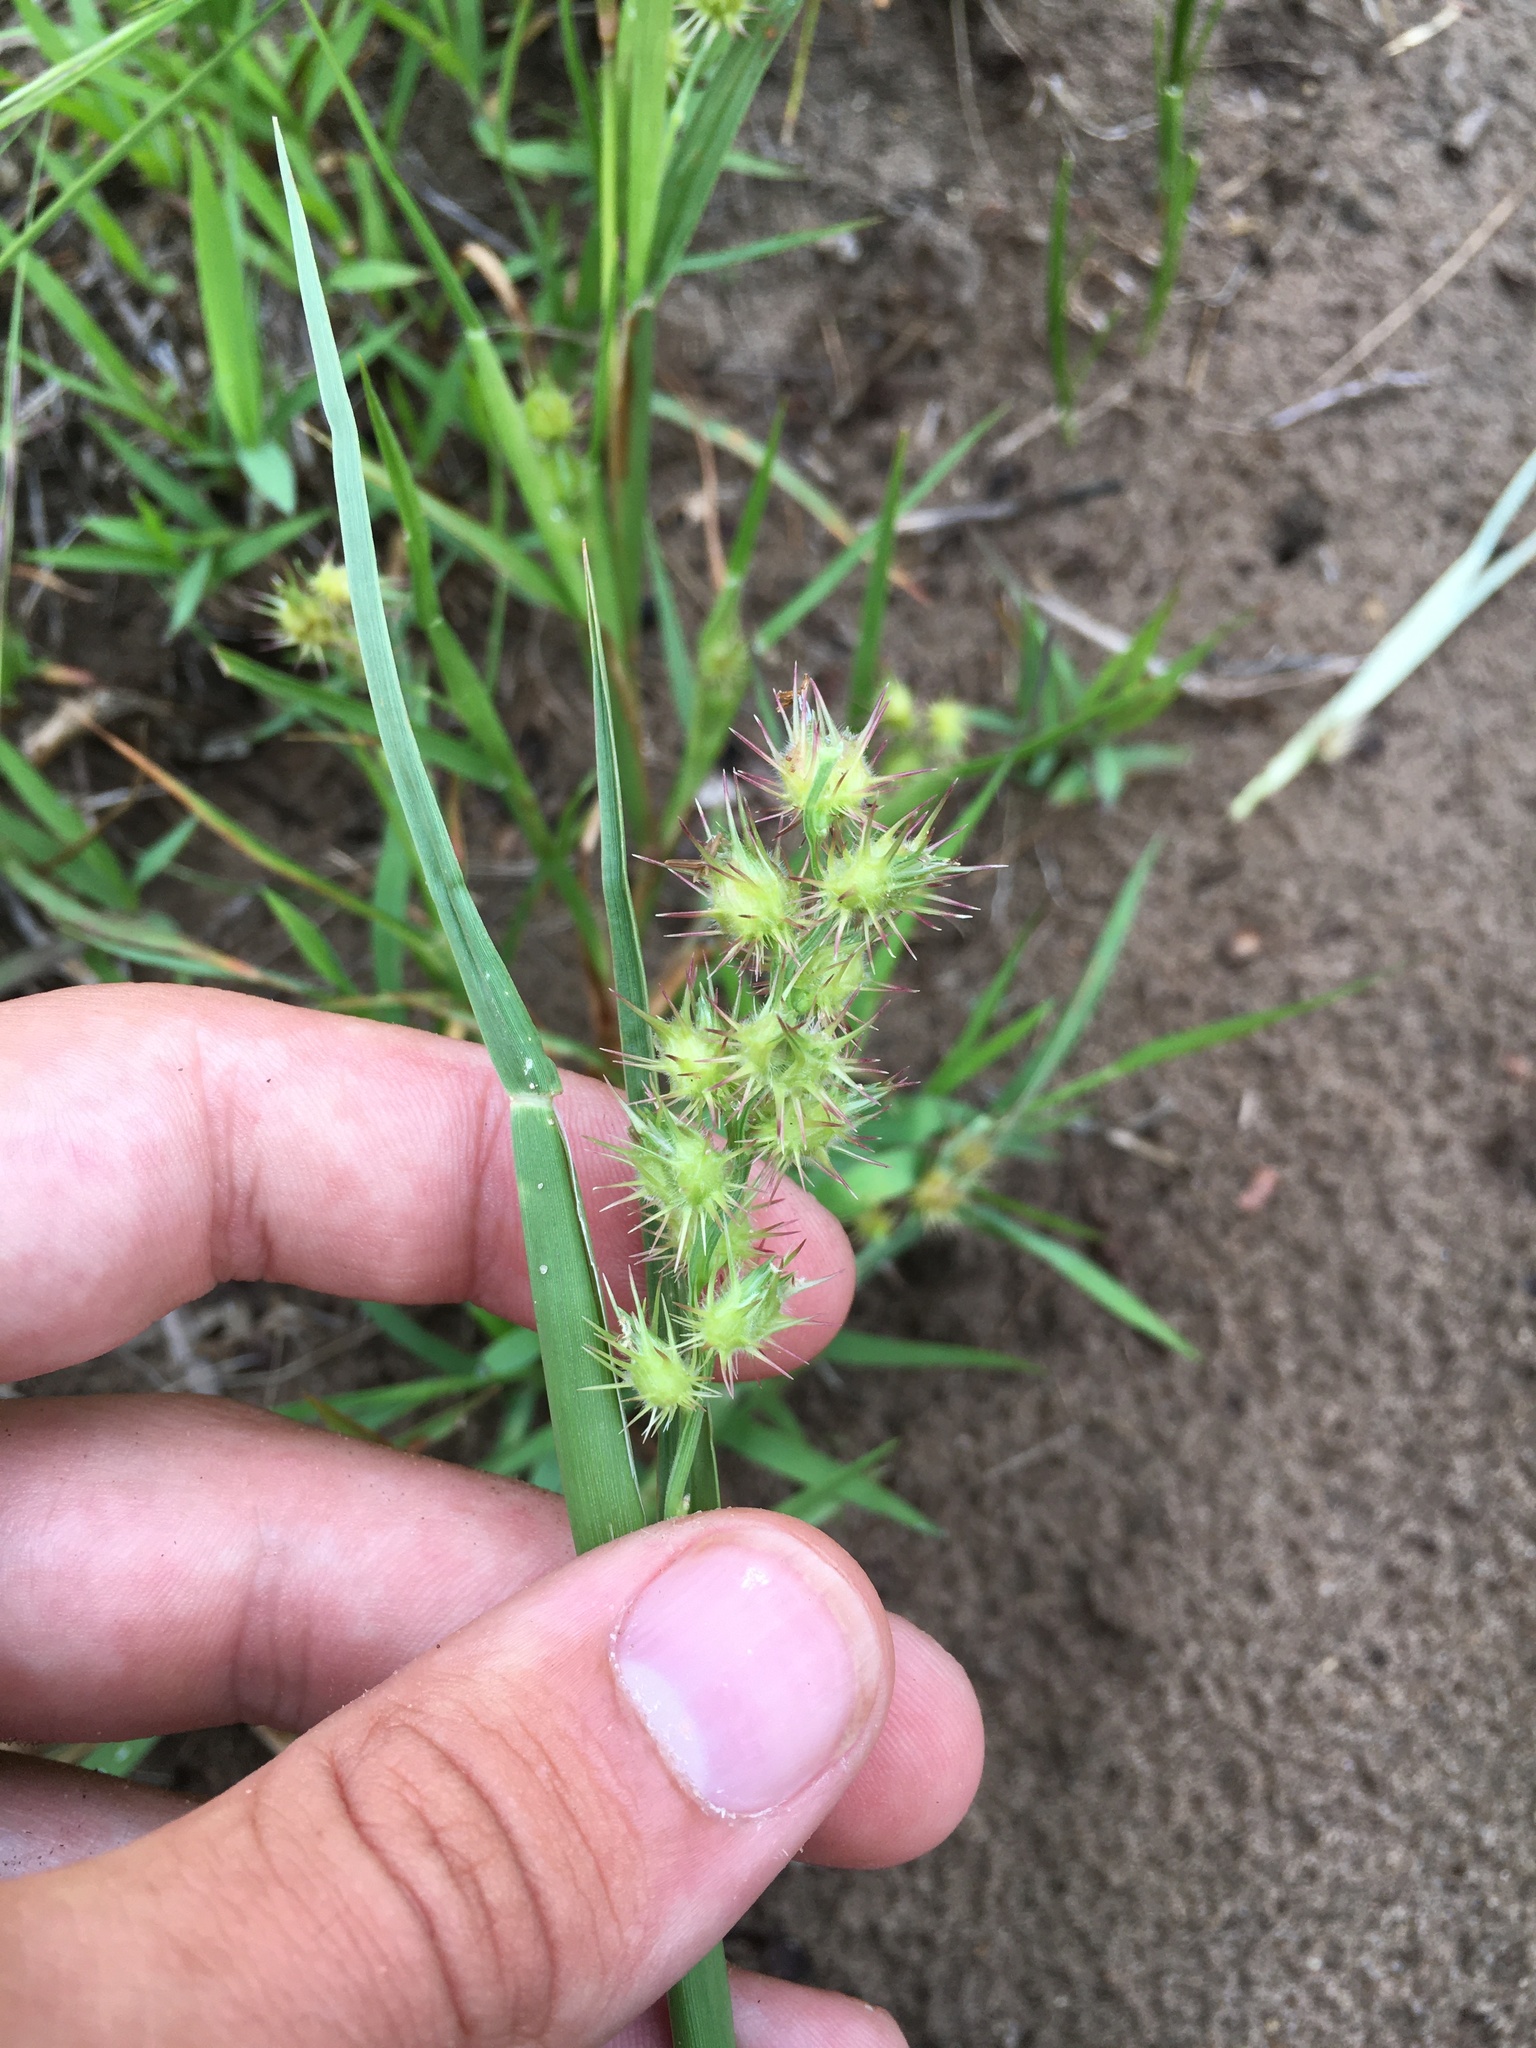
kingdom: Plantae
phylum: Tracheophyta
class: Liliopsida
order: Poales
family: Poaceae
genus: Cenchrus
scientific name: Cenchrus longispinus
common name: Mat sandbur
